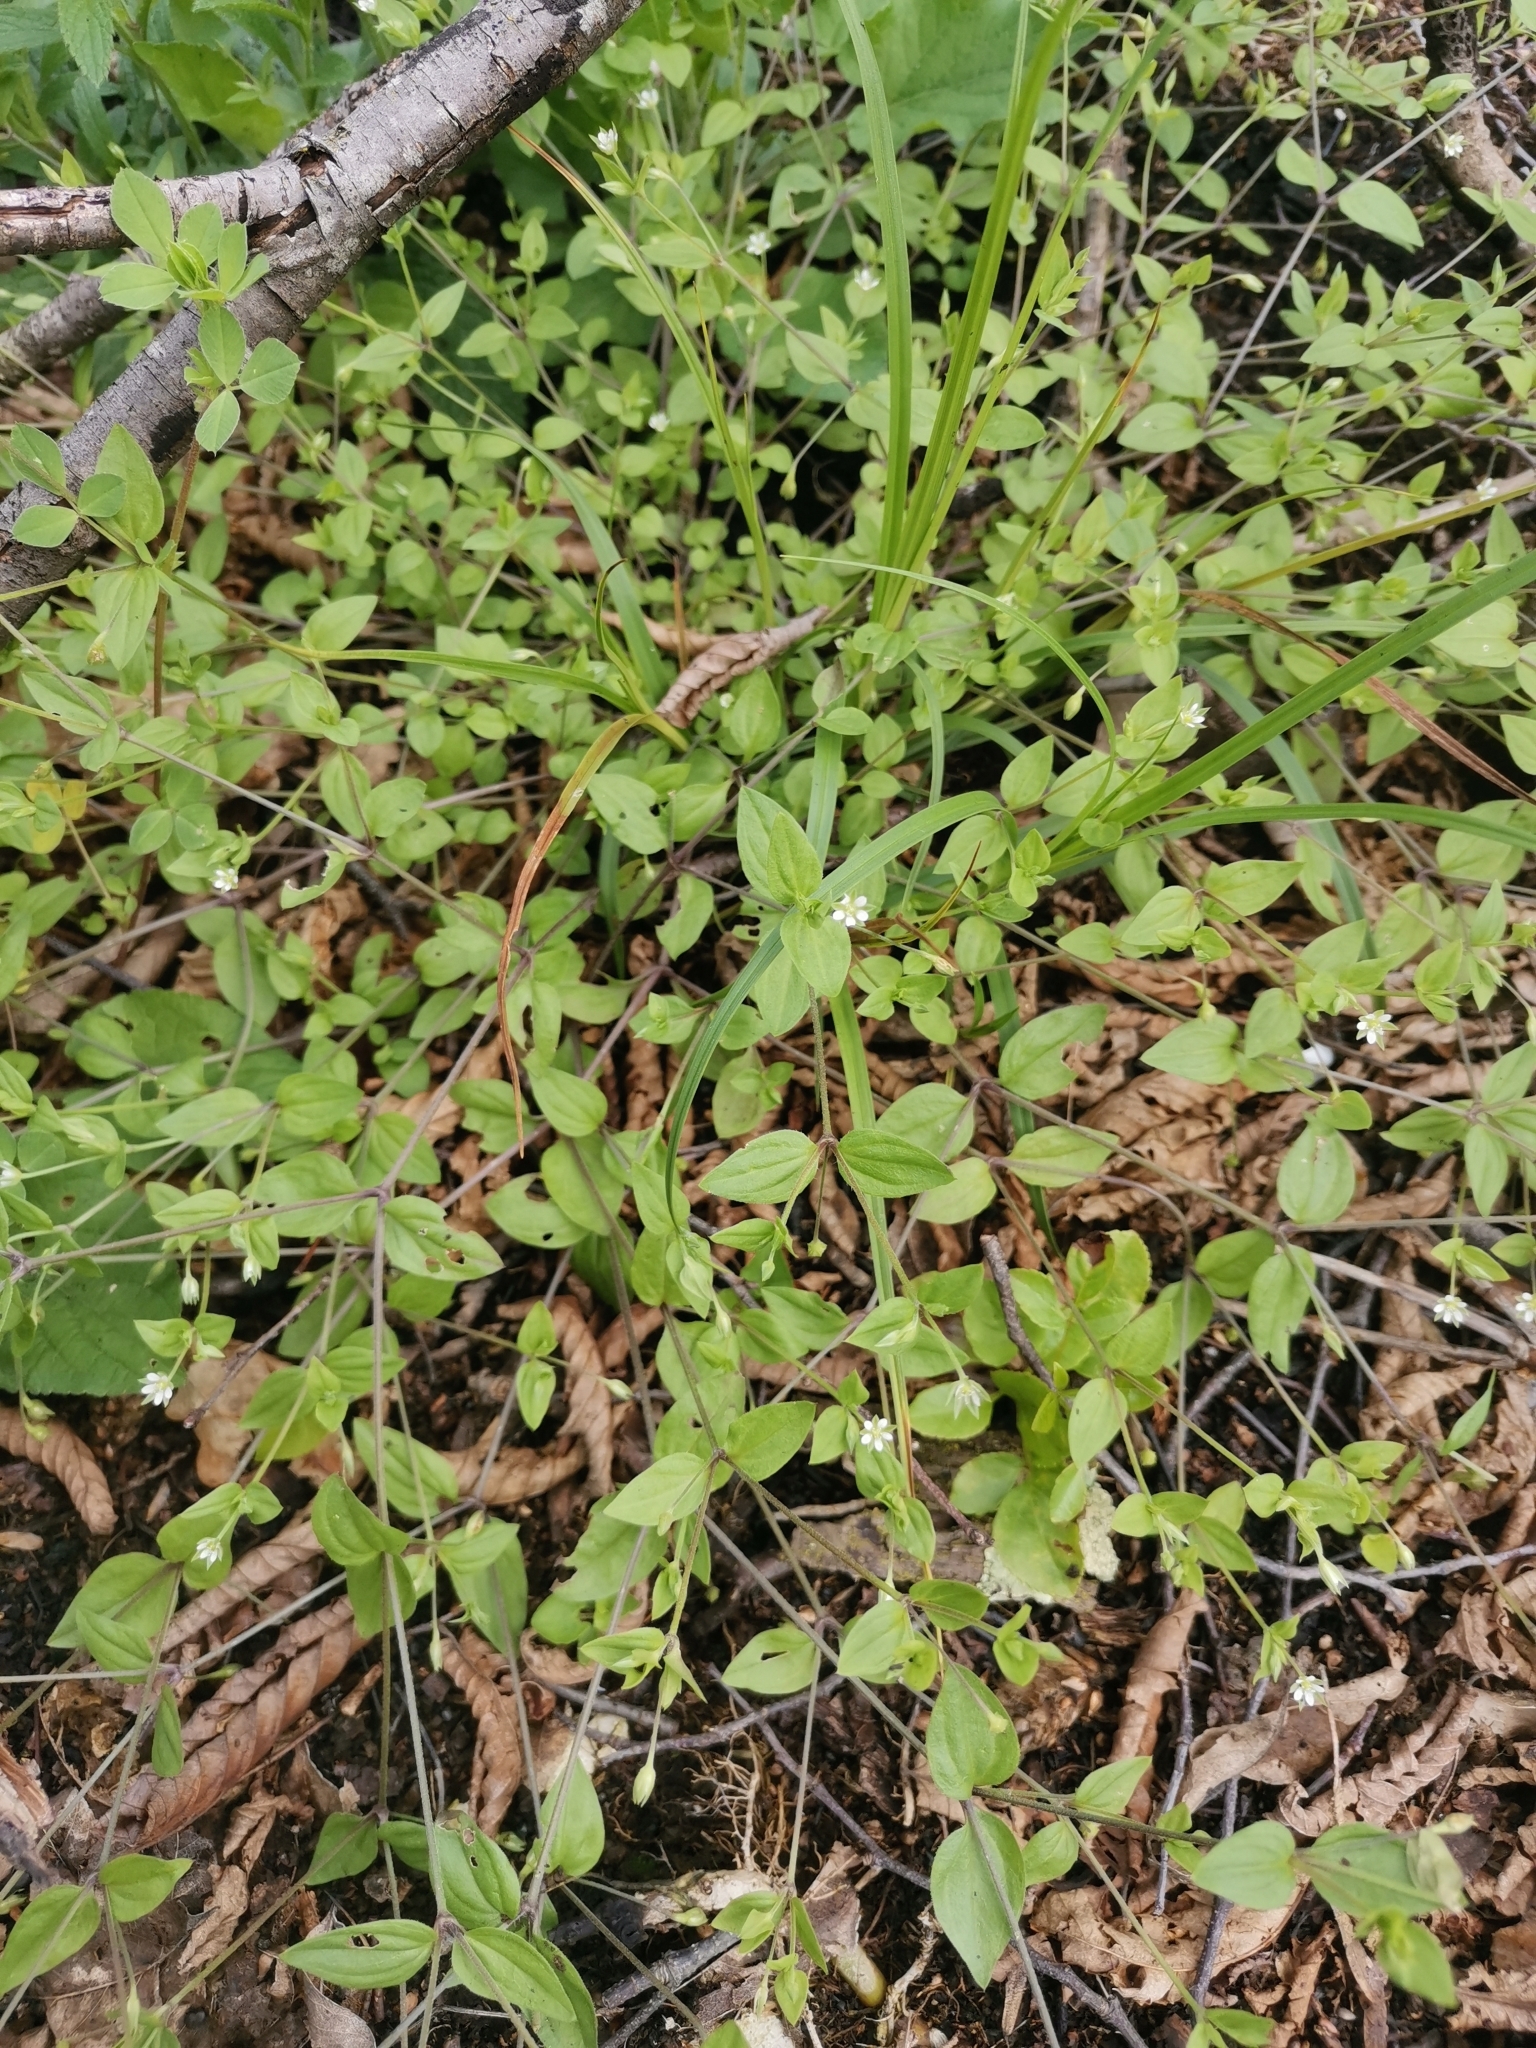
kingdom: Plantae
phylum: Tracheophyta
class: Magnoliopsida
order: Caryophyllales
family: Caryophyllaceae
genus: Moehringia
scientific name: Moehringia trinervia
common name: Three-nerved sandwort
